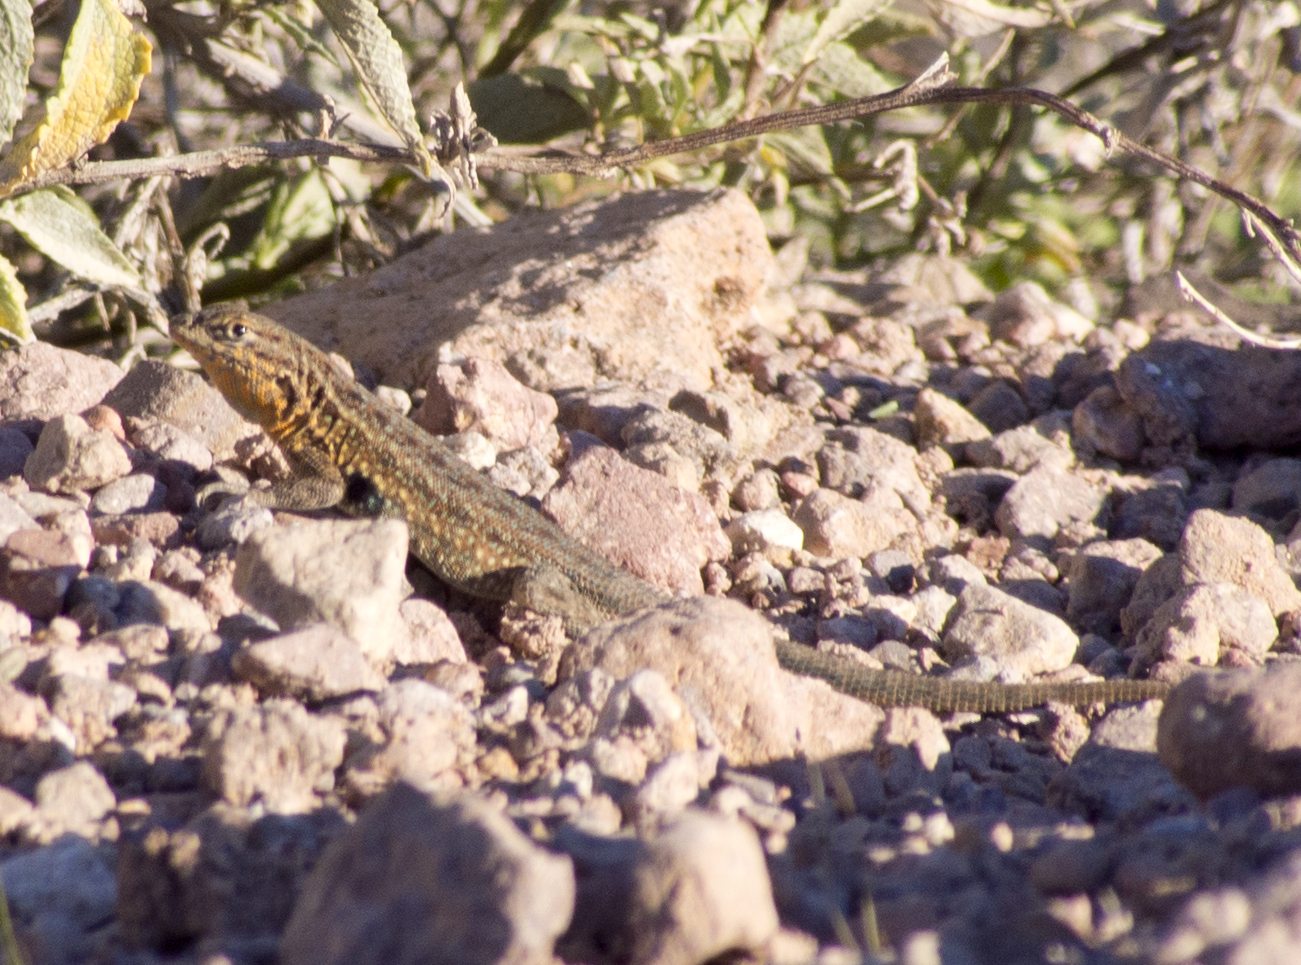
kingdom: Animalia
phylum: Chordata
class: Squamata
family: Phrynosomatidae
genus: Uta
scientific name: Uta stansburiana
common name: Side-blotched lizard
